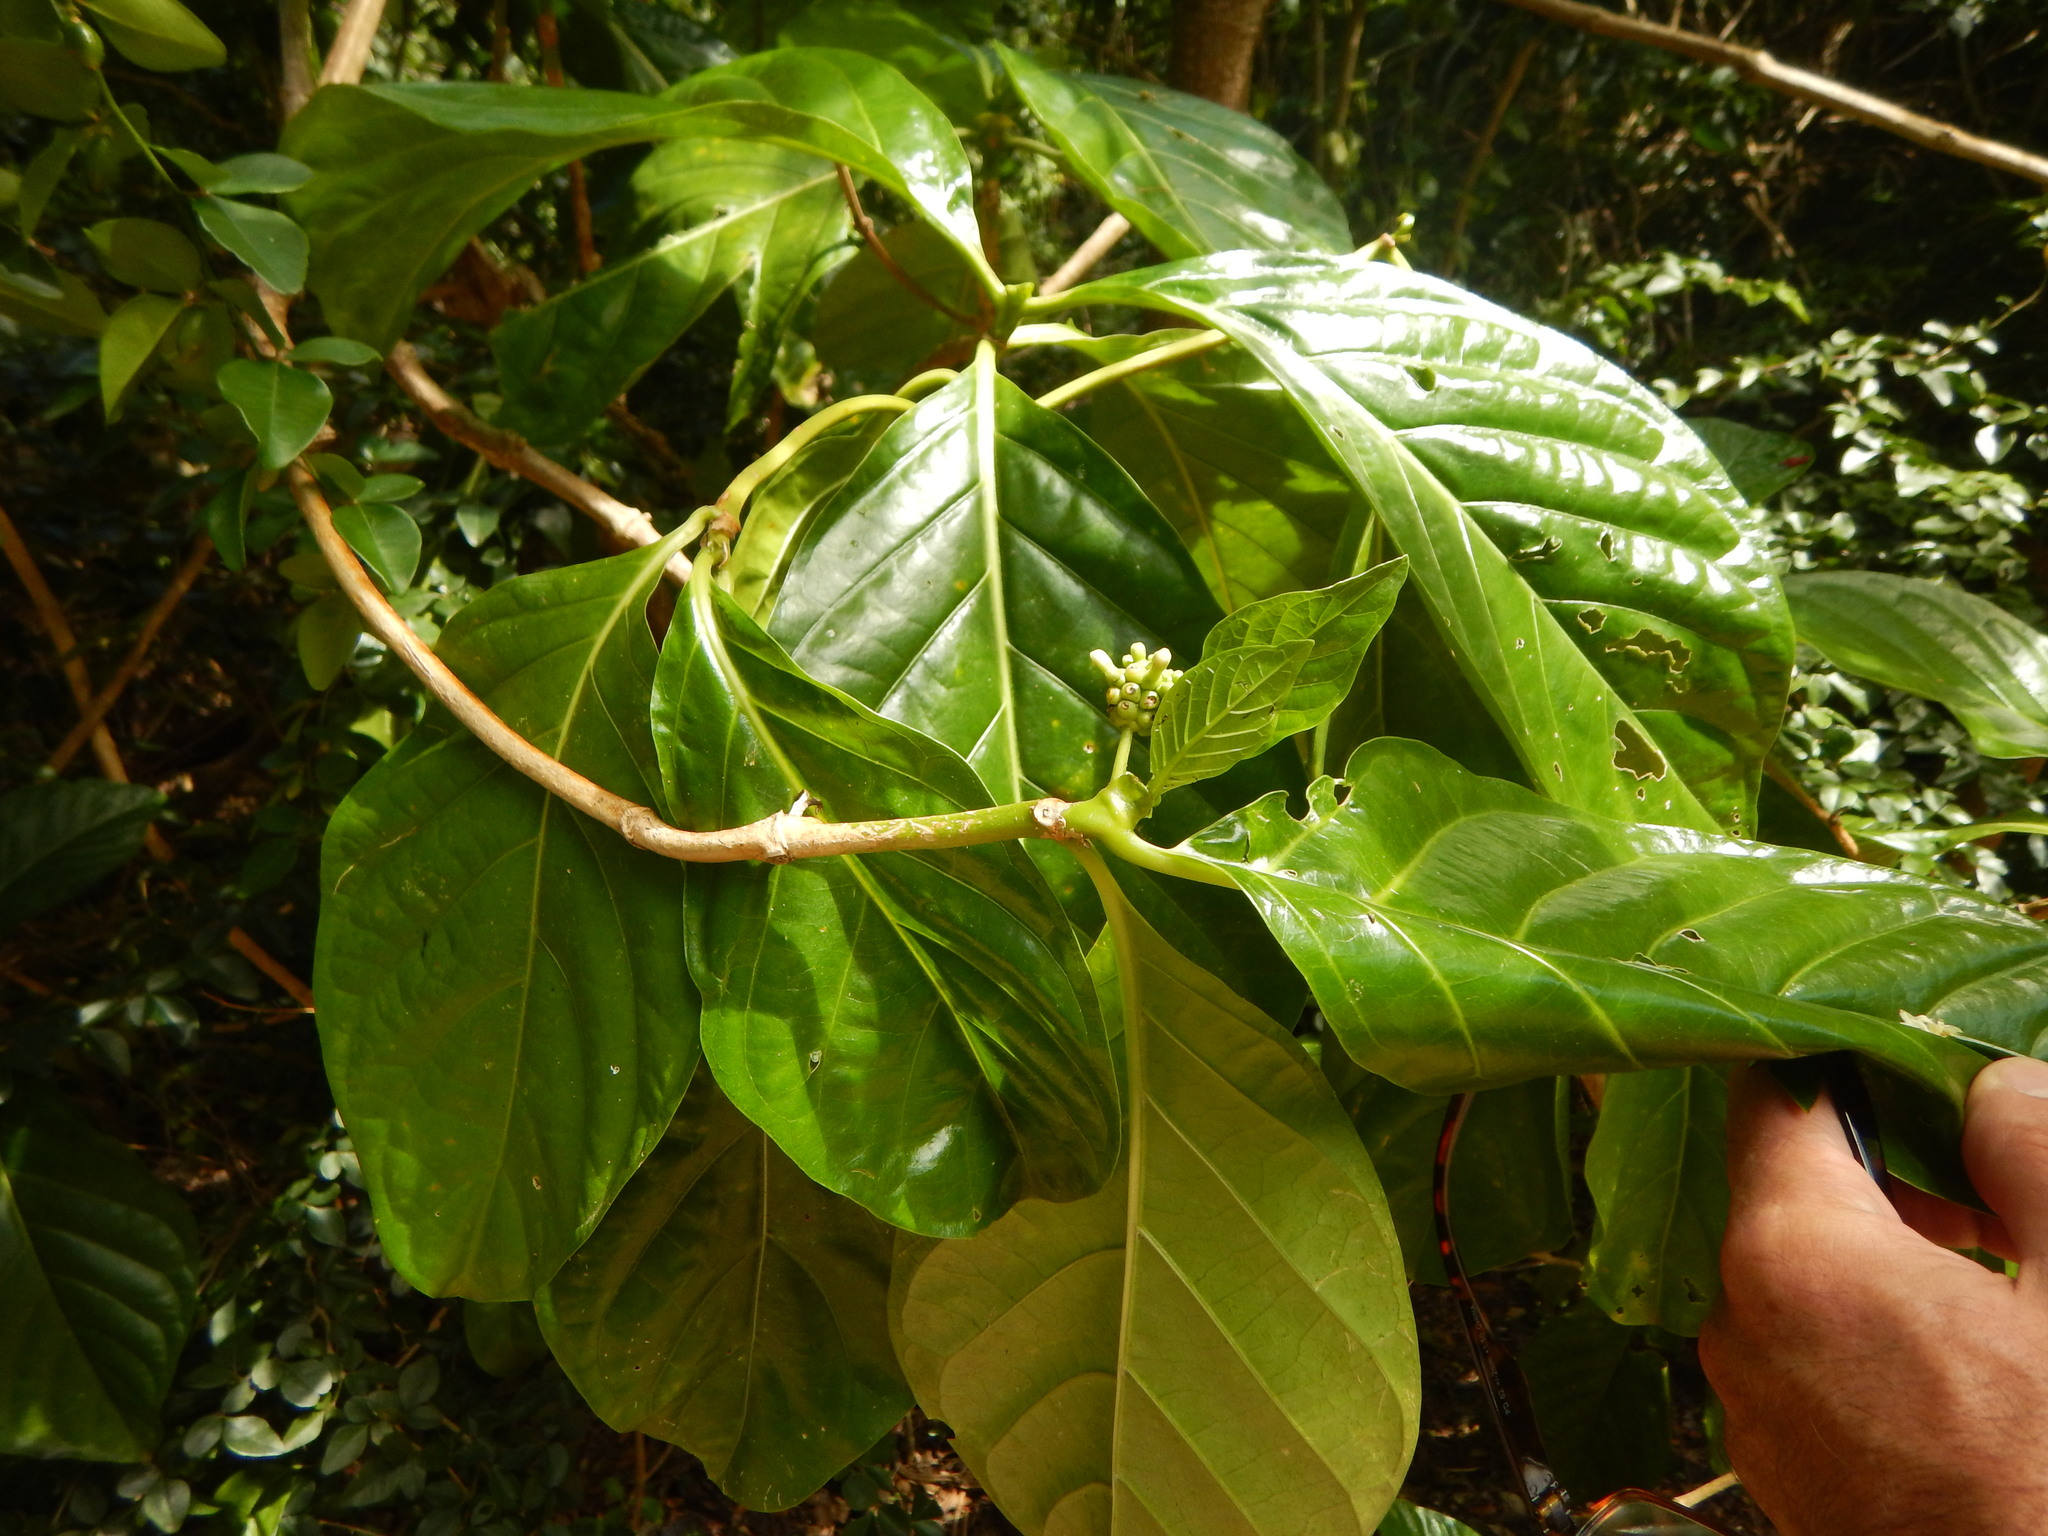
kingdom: Plantae
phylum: Tracheophyta
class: Magnoliopsida
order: Gentianales
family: Rubiaceae
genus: Morinda
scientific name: Morinda citrifolia
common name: Indian-mulberry
